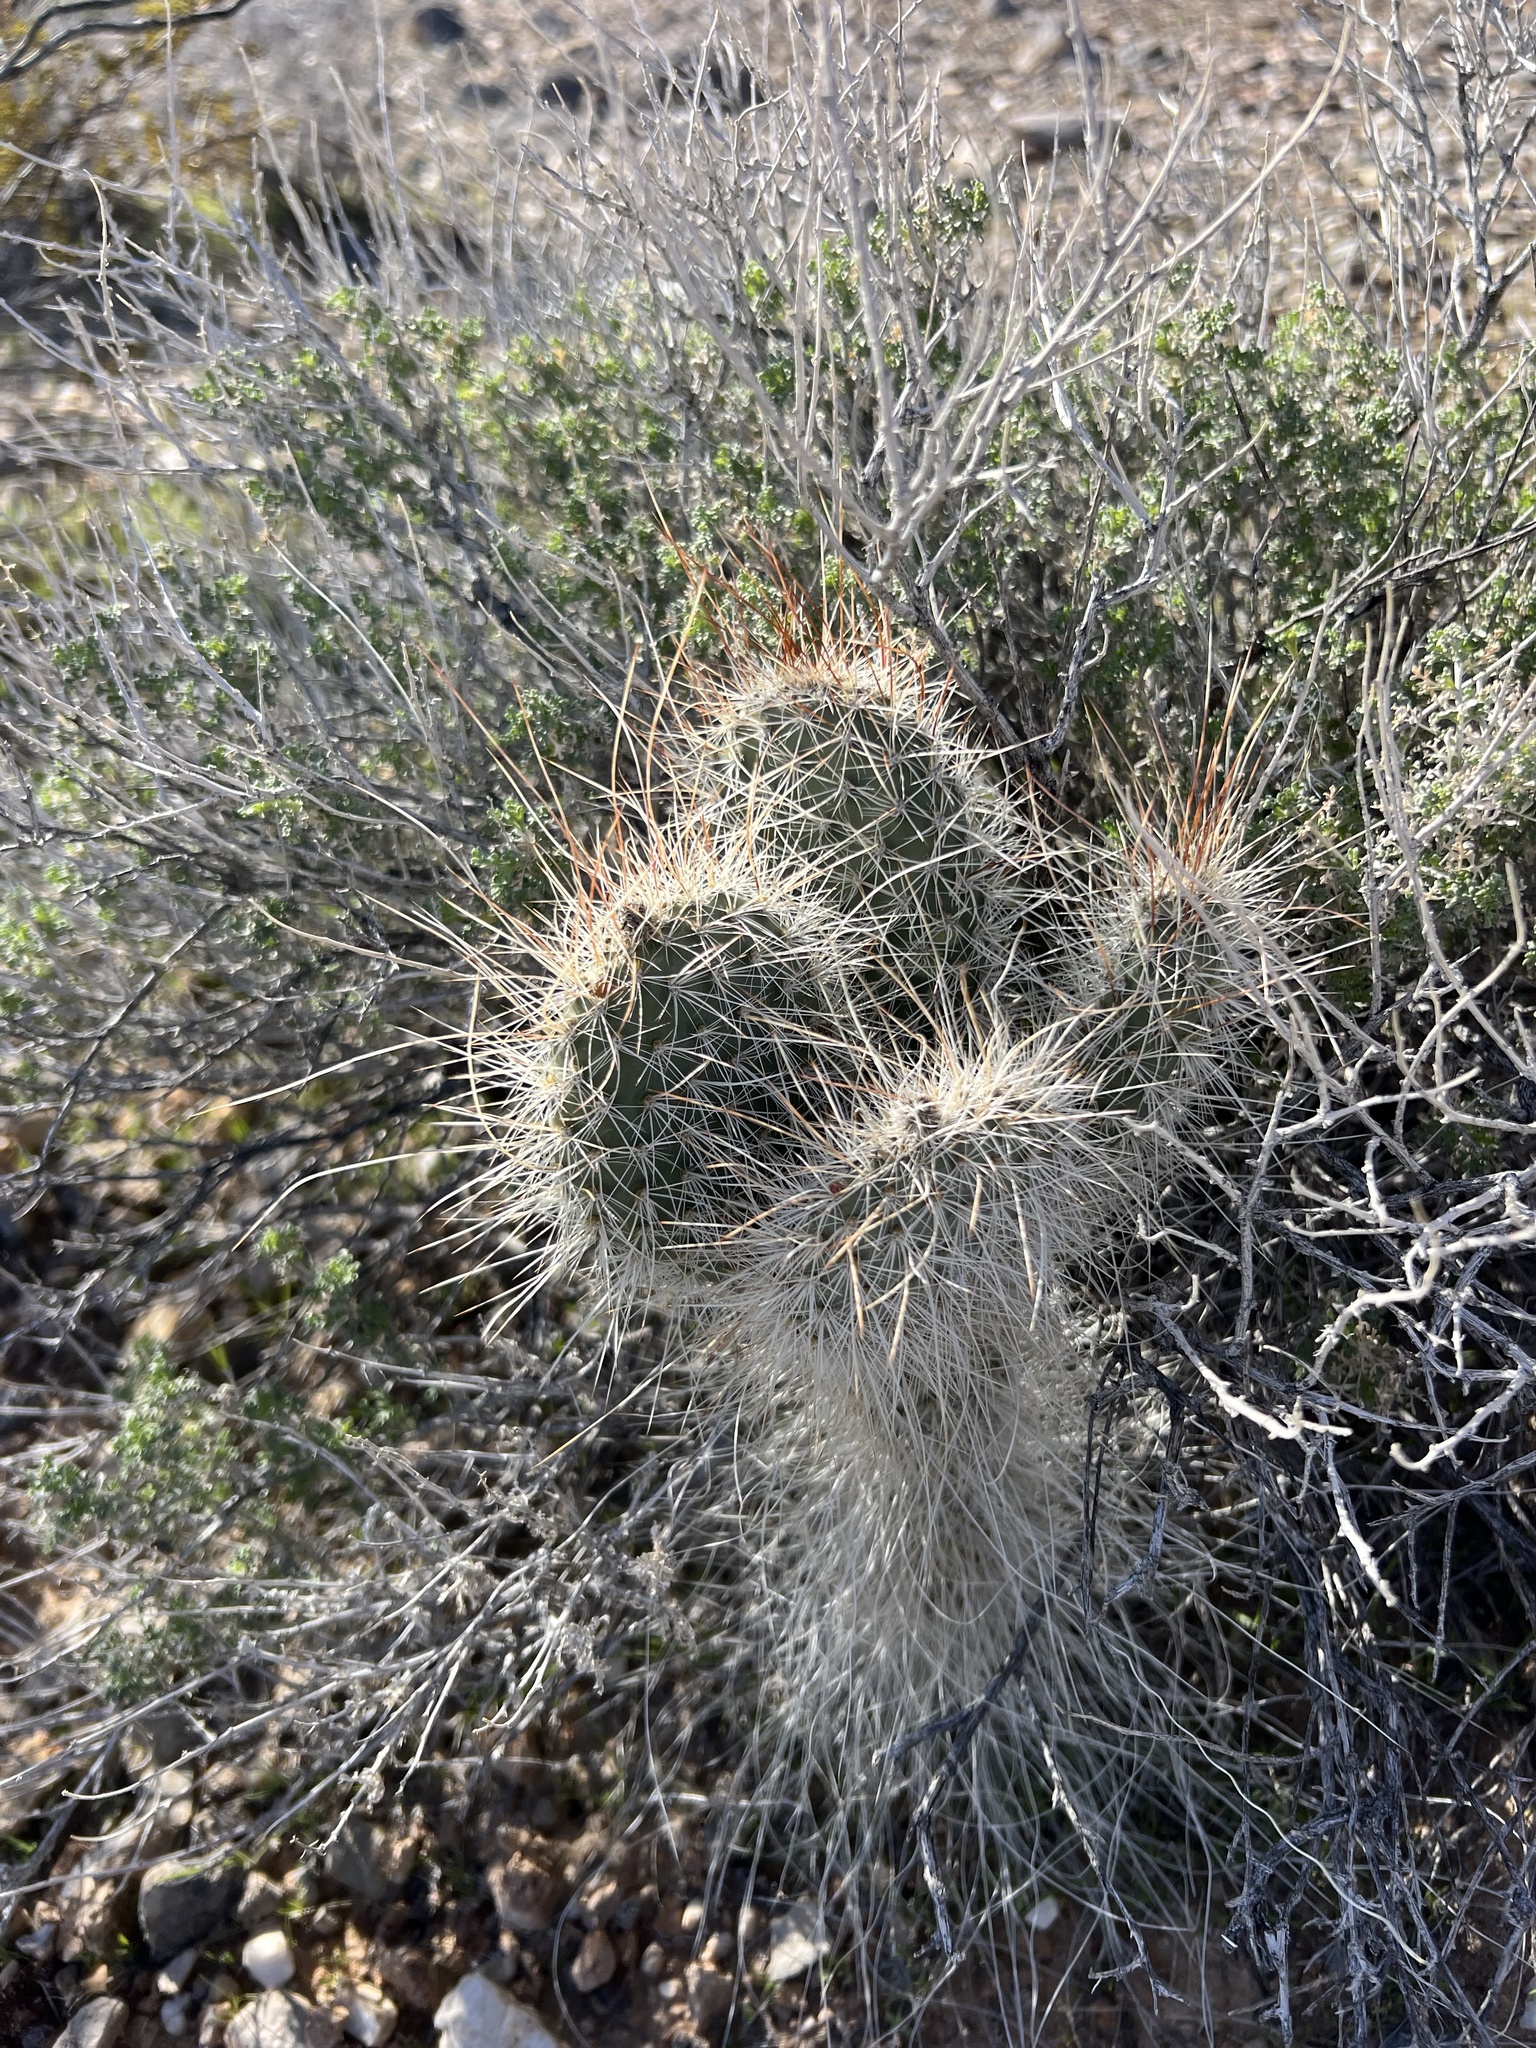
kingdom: Plantae
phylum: Tracheophyta
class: Magnoliopsida
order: Caryophyllales
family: Cactaceae
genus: Opuntia
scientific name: Opuntia polyacantha
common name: Plains prickly-pear
